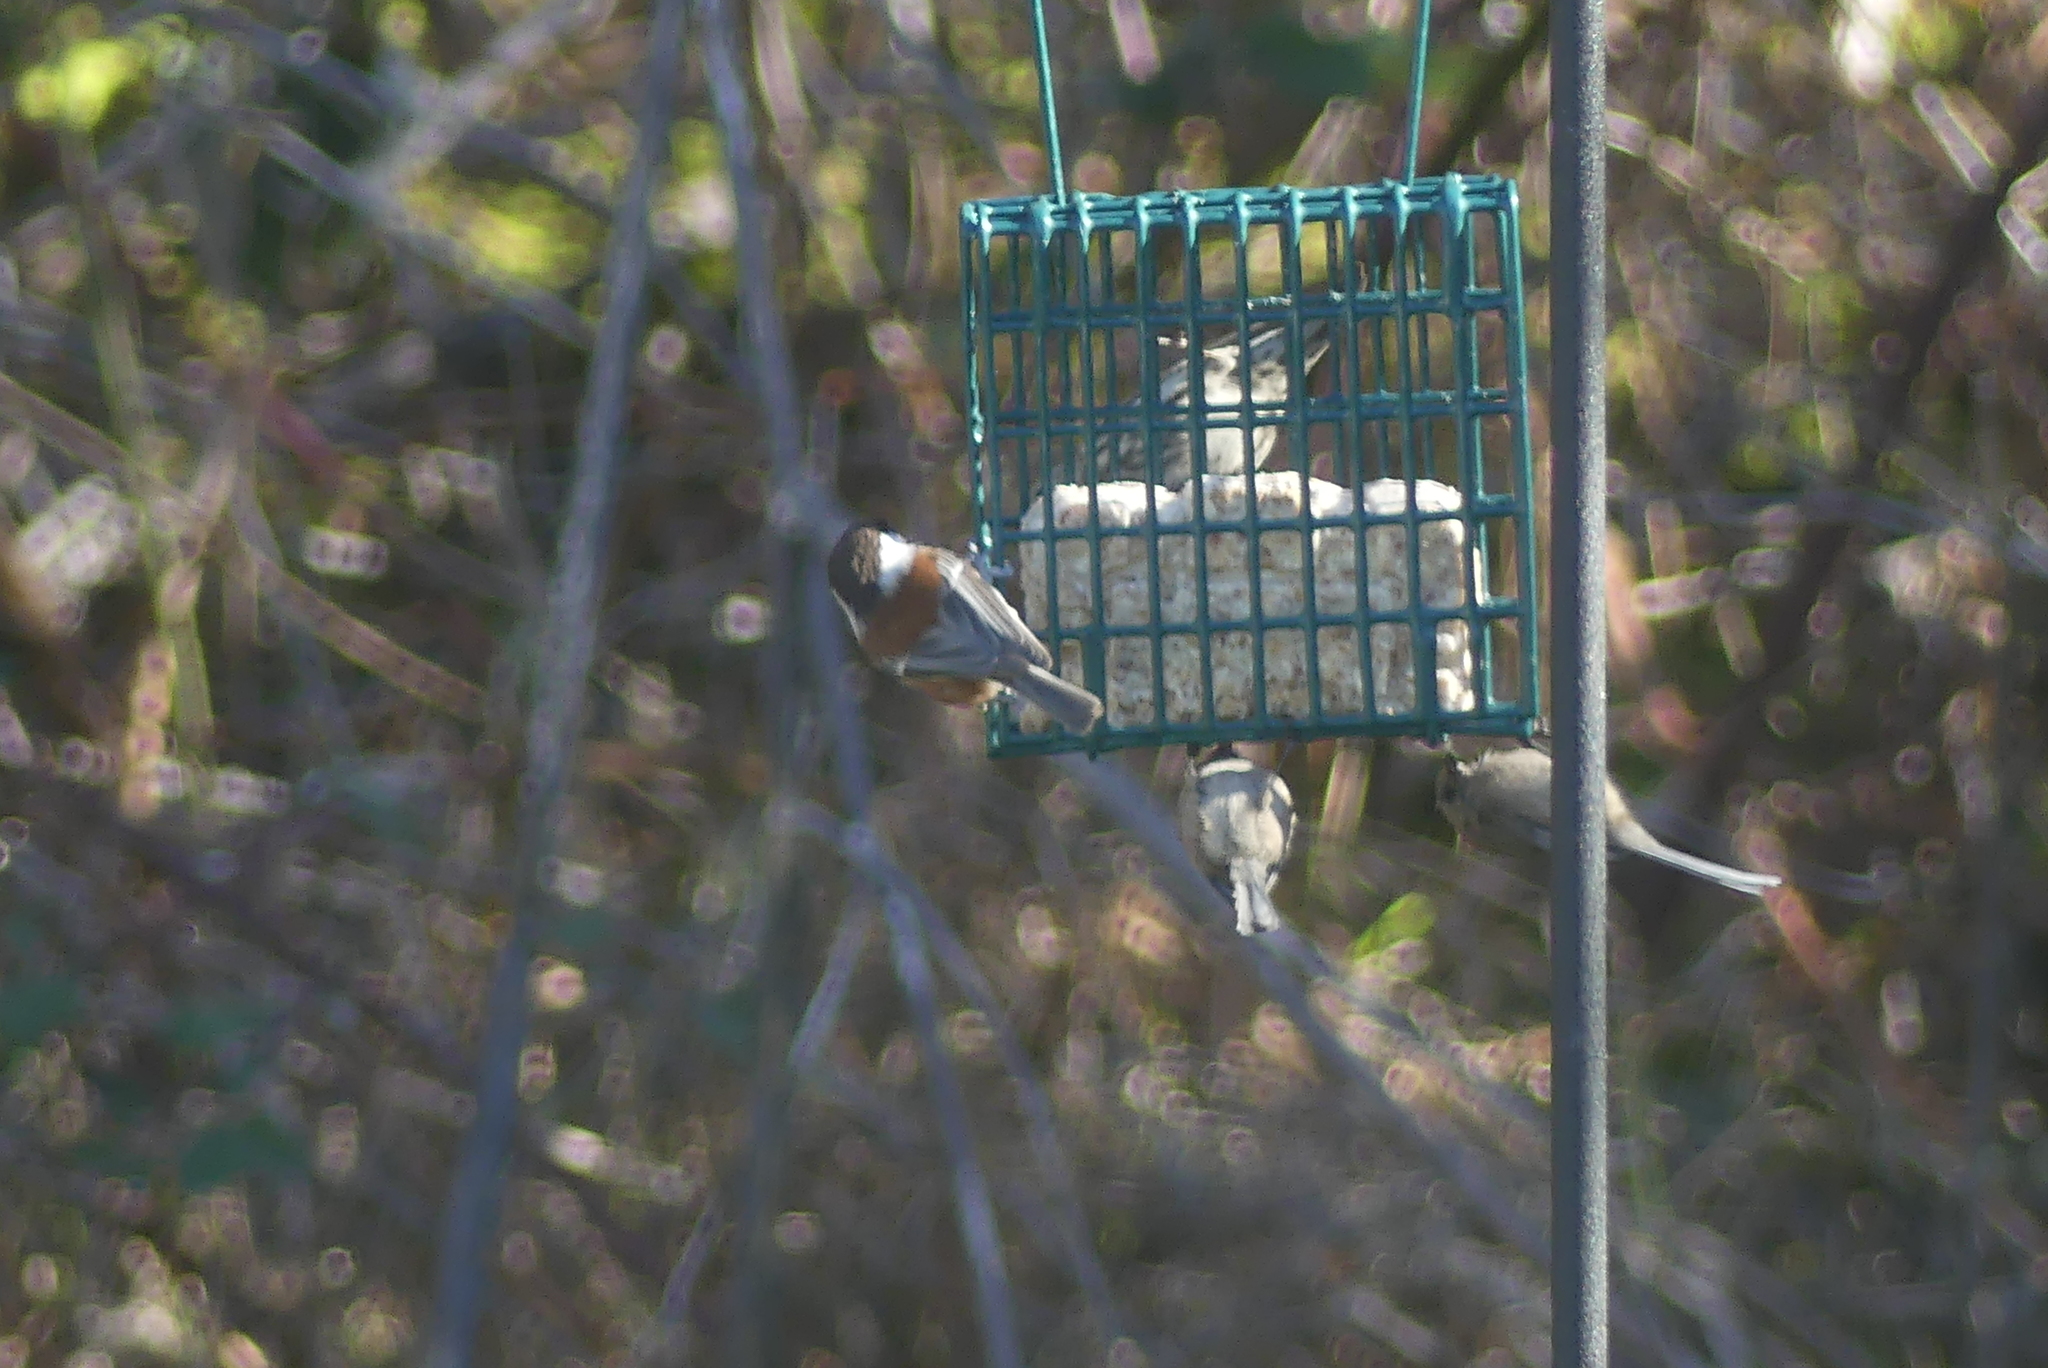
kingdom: Animalia
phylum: Chordata
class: Aves
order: Passeriformes
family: Paridae
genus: Poecile
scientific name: Poecile rufescens
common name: Chestnut-backed chickadee
